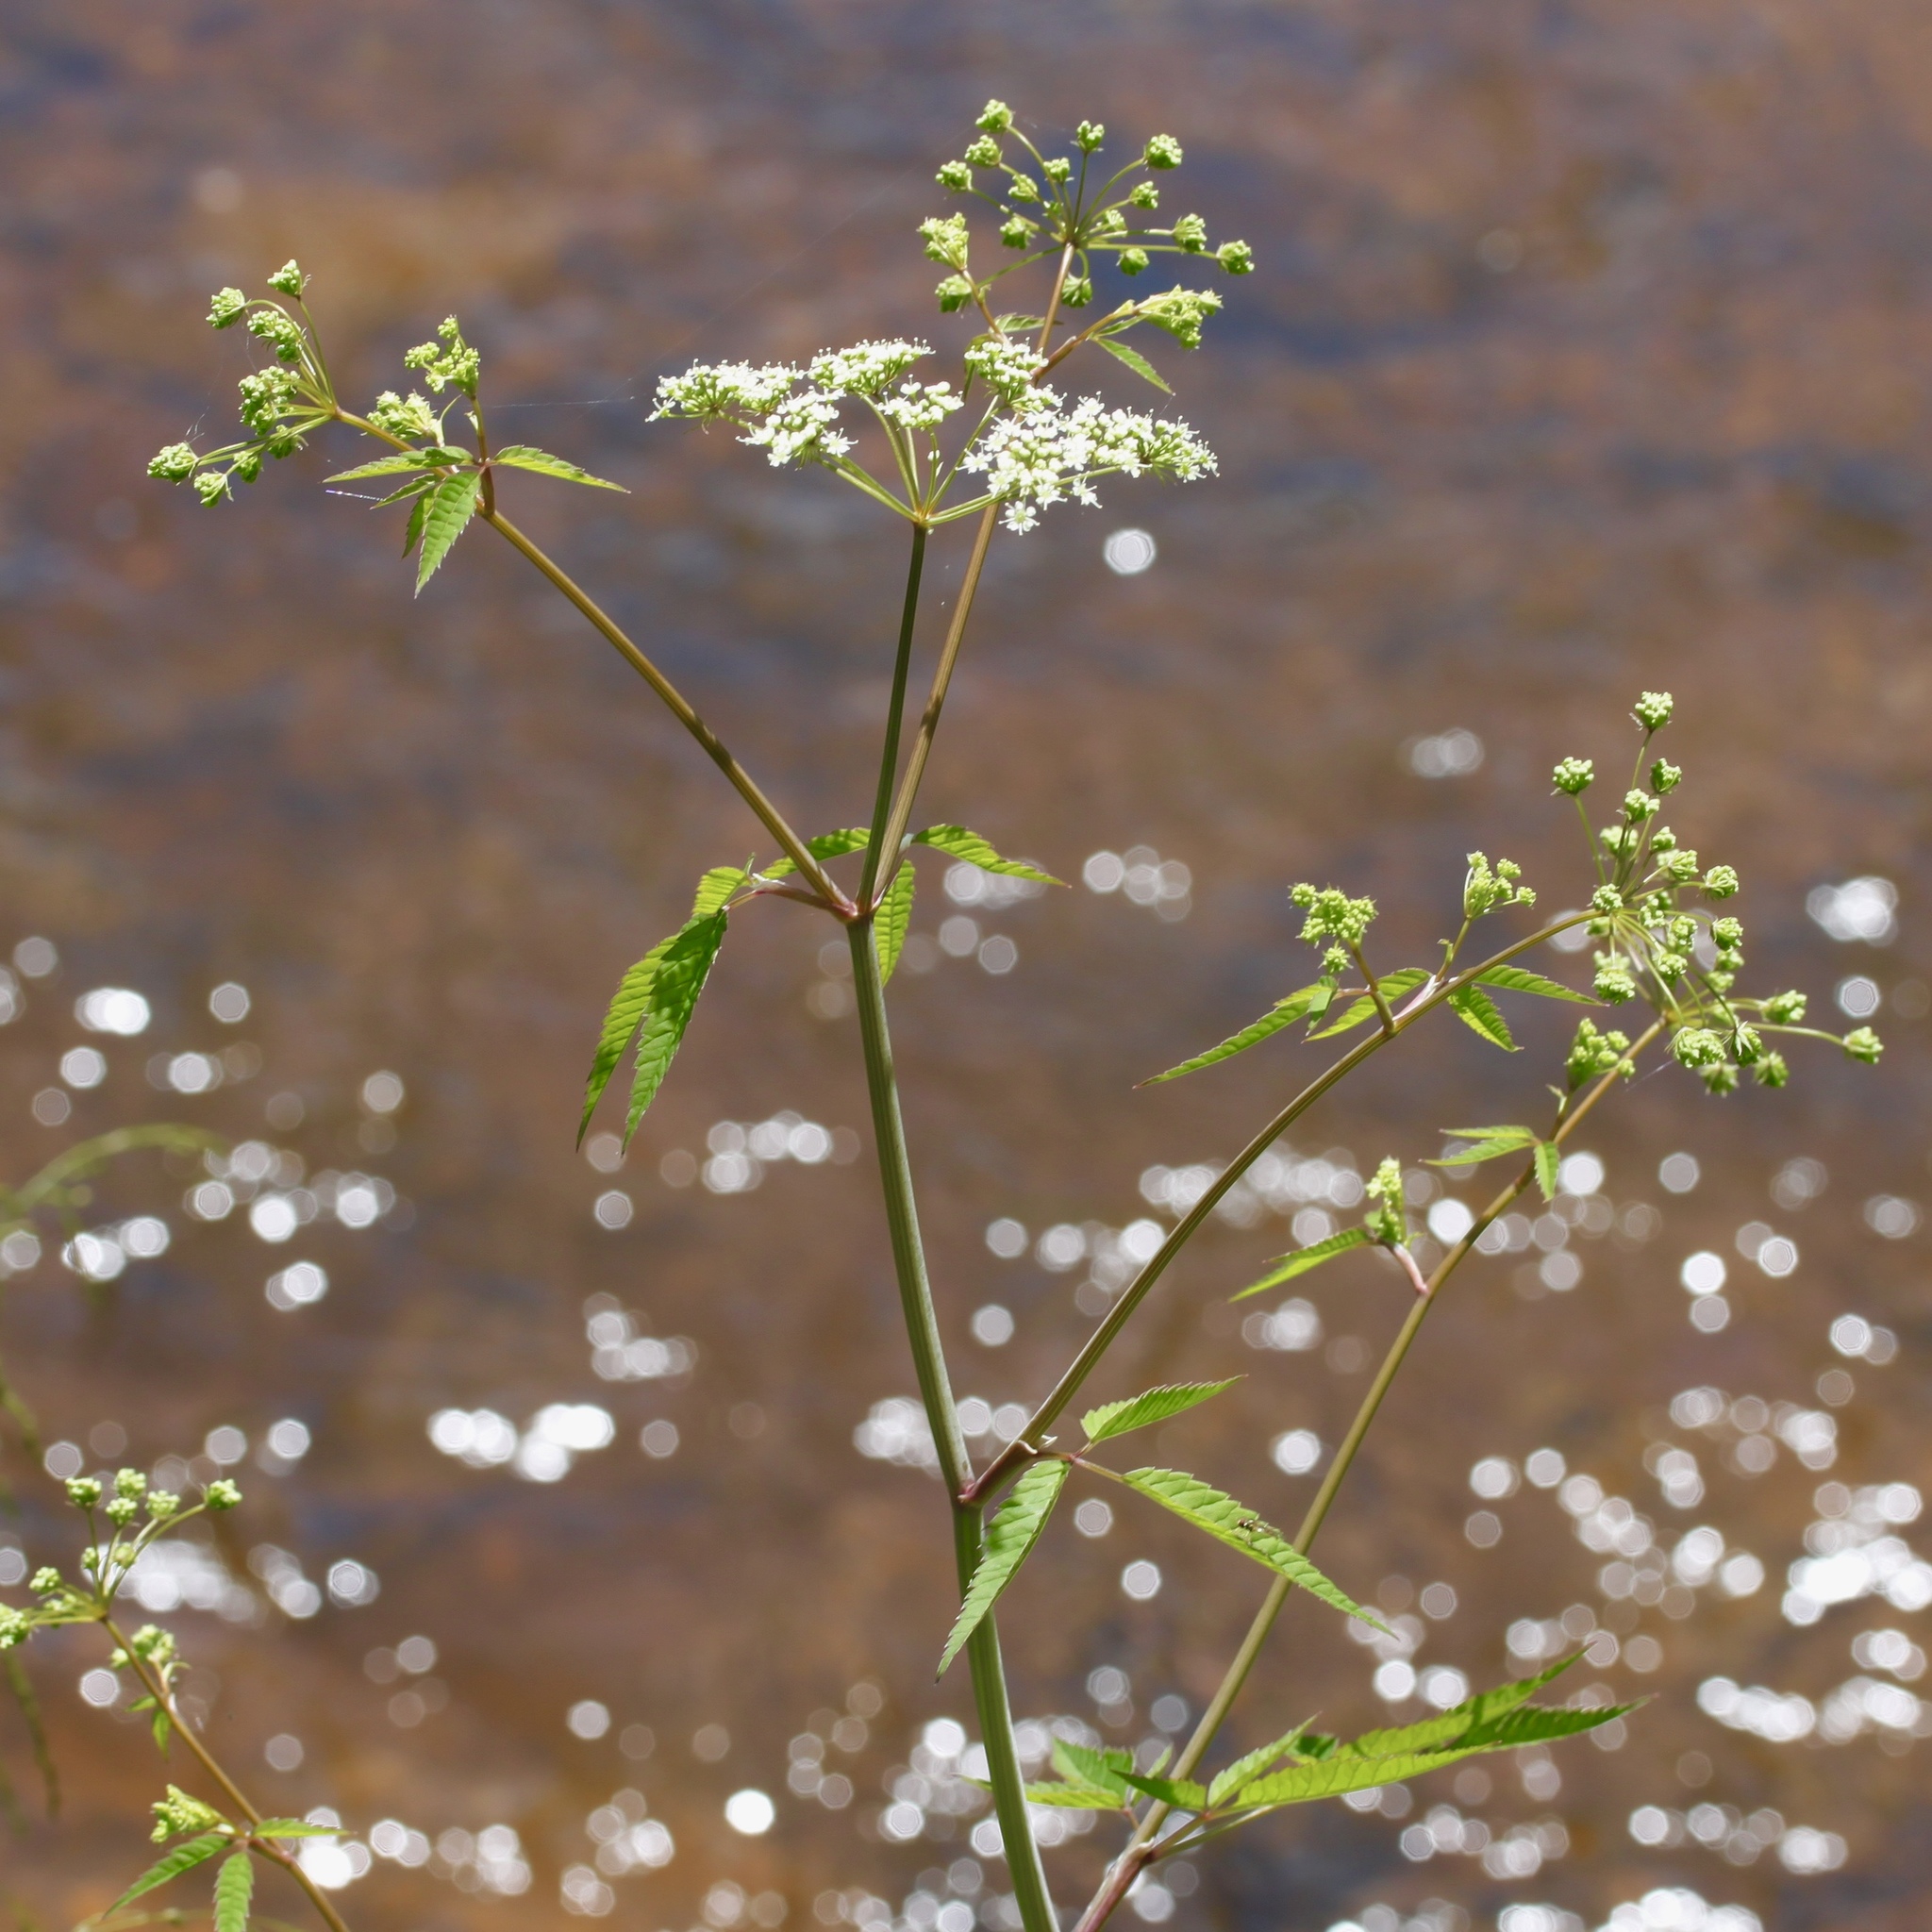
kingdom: Plantae
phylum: Tracheophyta
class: Magnoliopsida
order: Apiales
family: Apiaceae
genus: Cicuta
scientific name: Cicuta maculata
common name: Spotted cowbane
